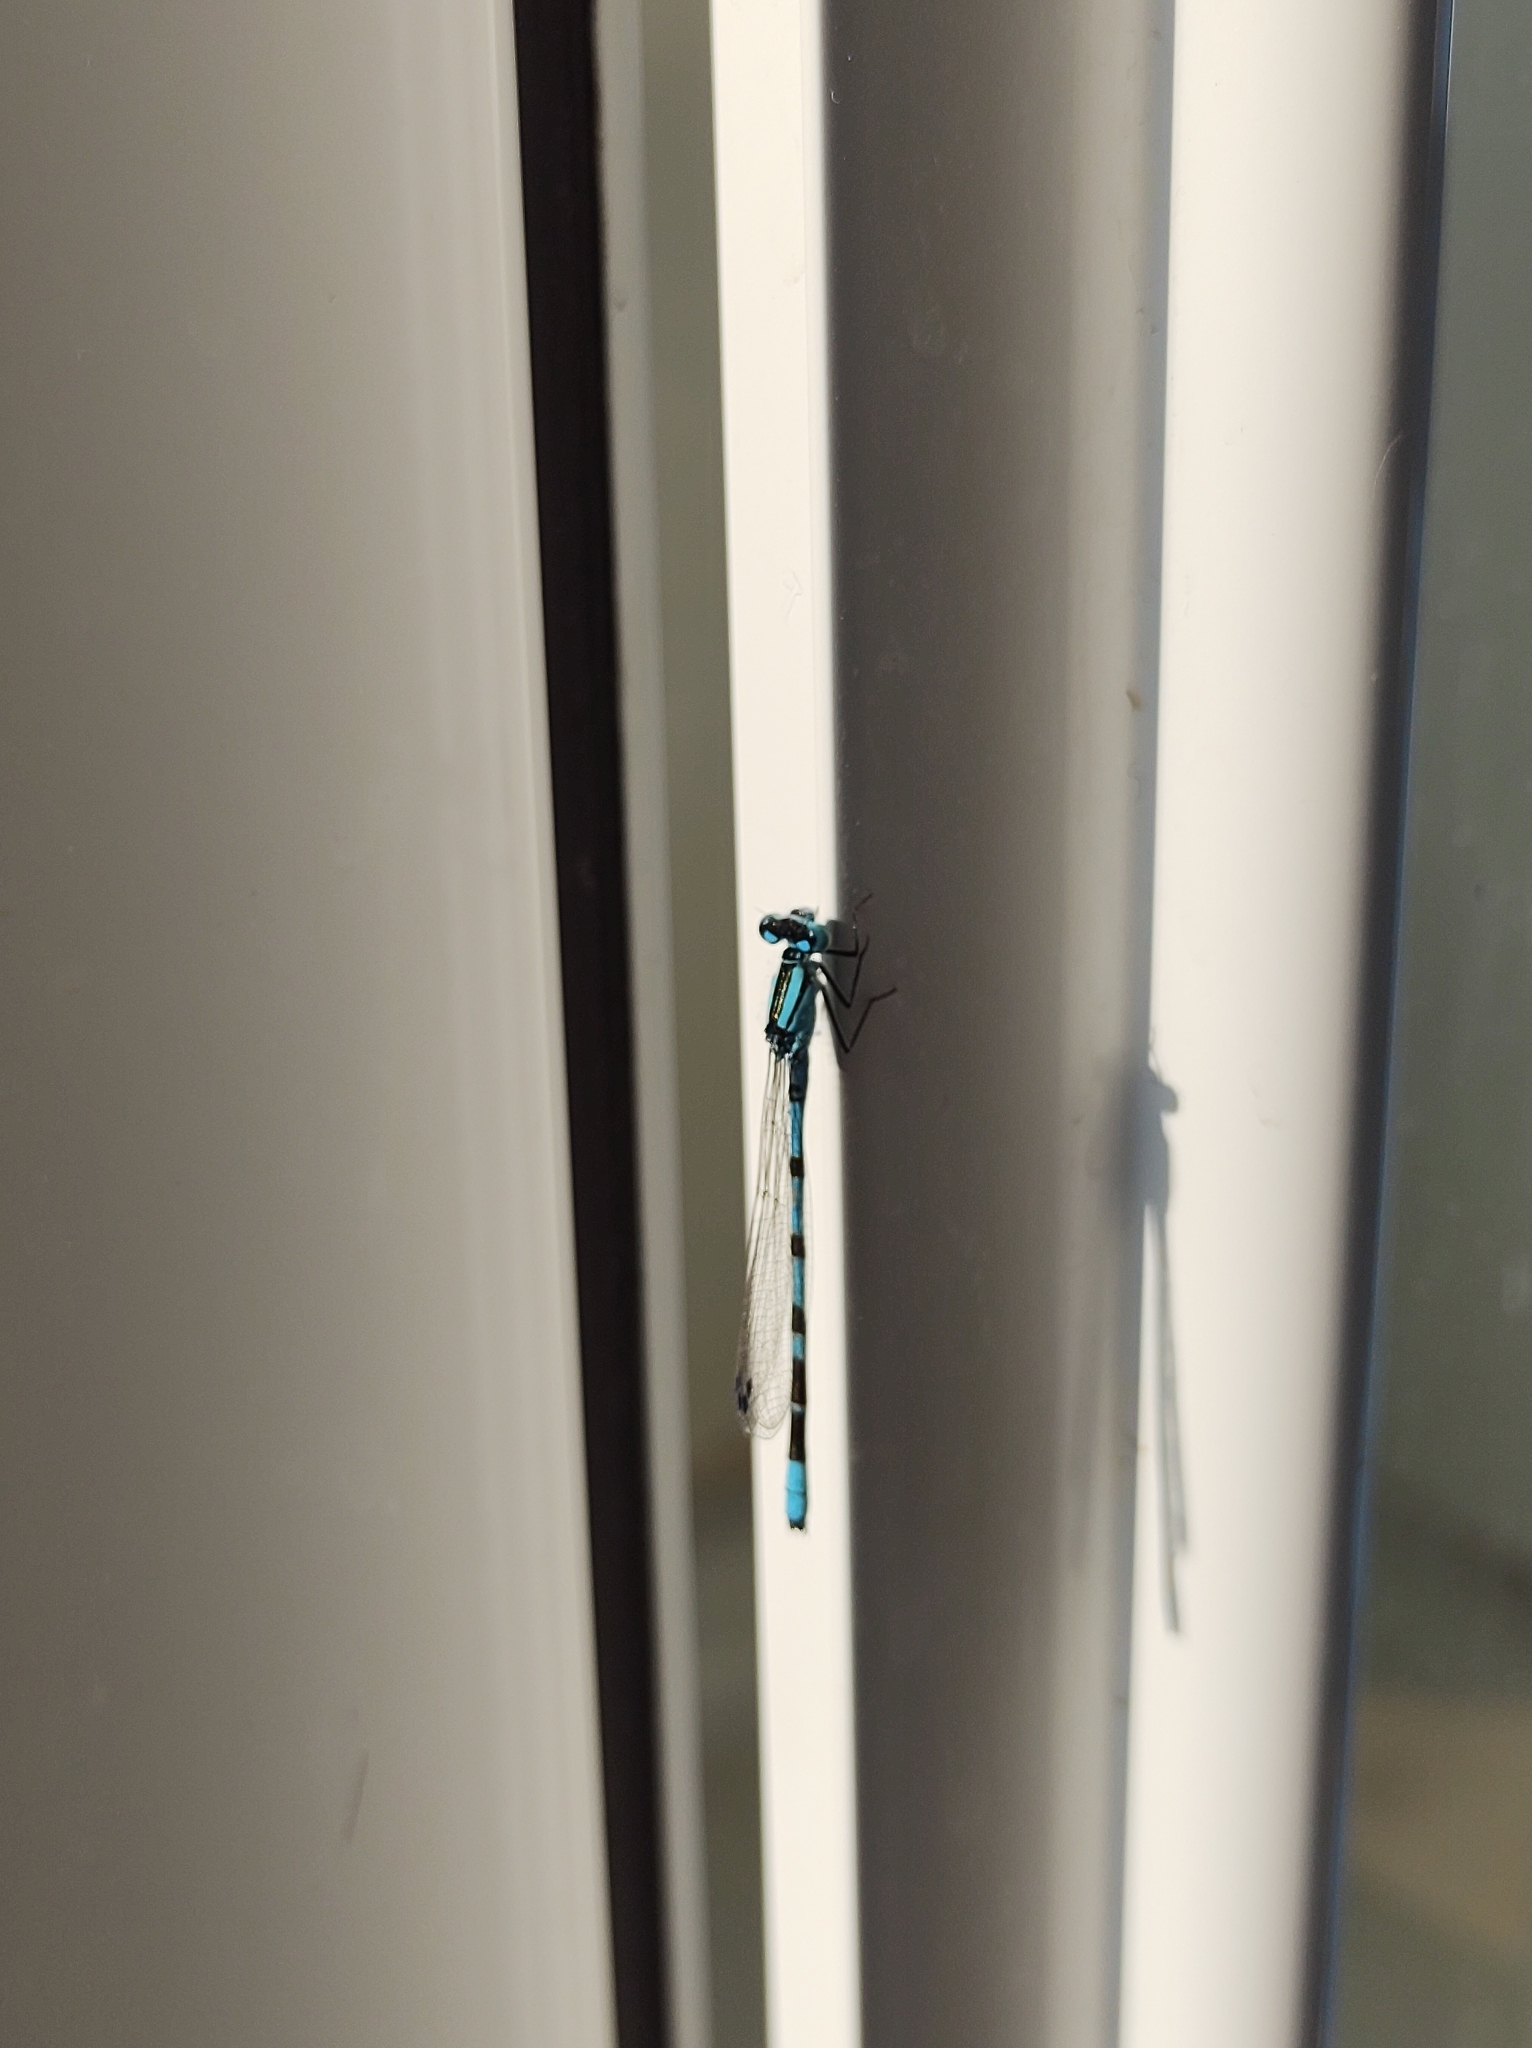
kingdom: Animalia
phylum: Arthropoda
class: Insecta
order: Odonata
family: Coenagrionidae
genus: Enallagma
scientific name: Enallagma cyathigerum
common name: Common blue damselfly
